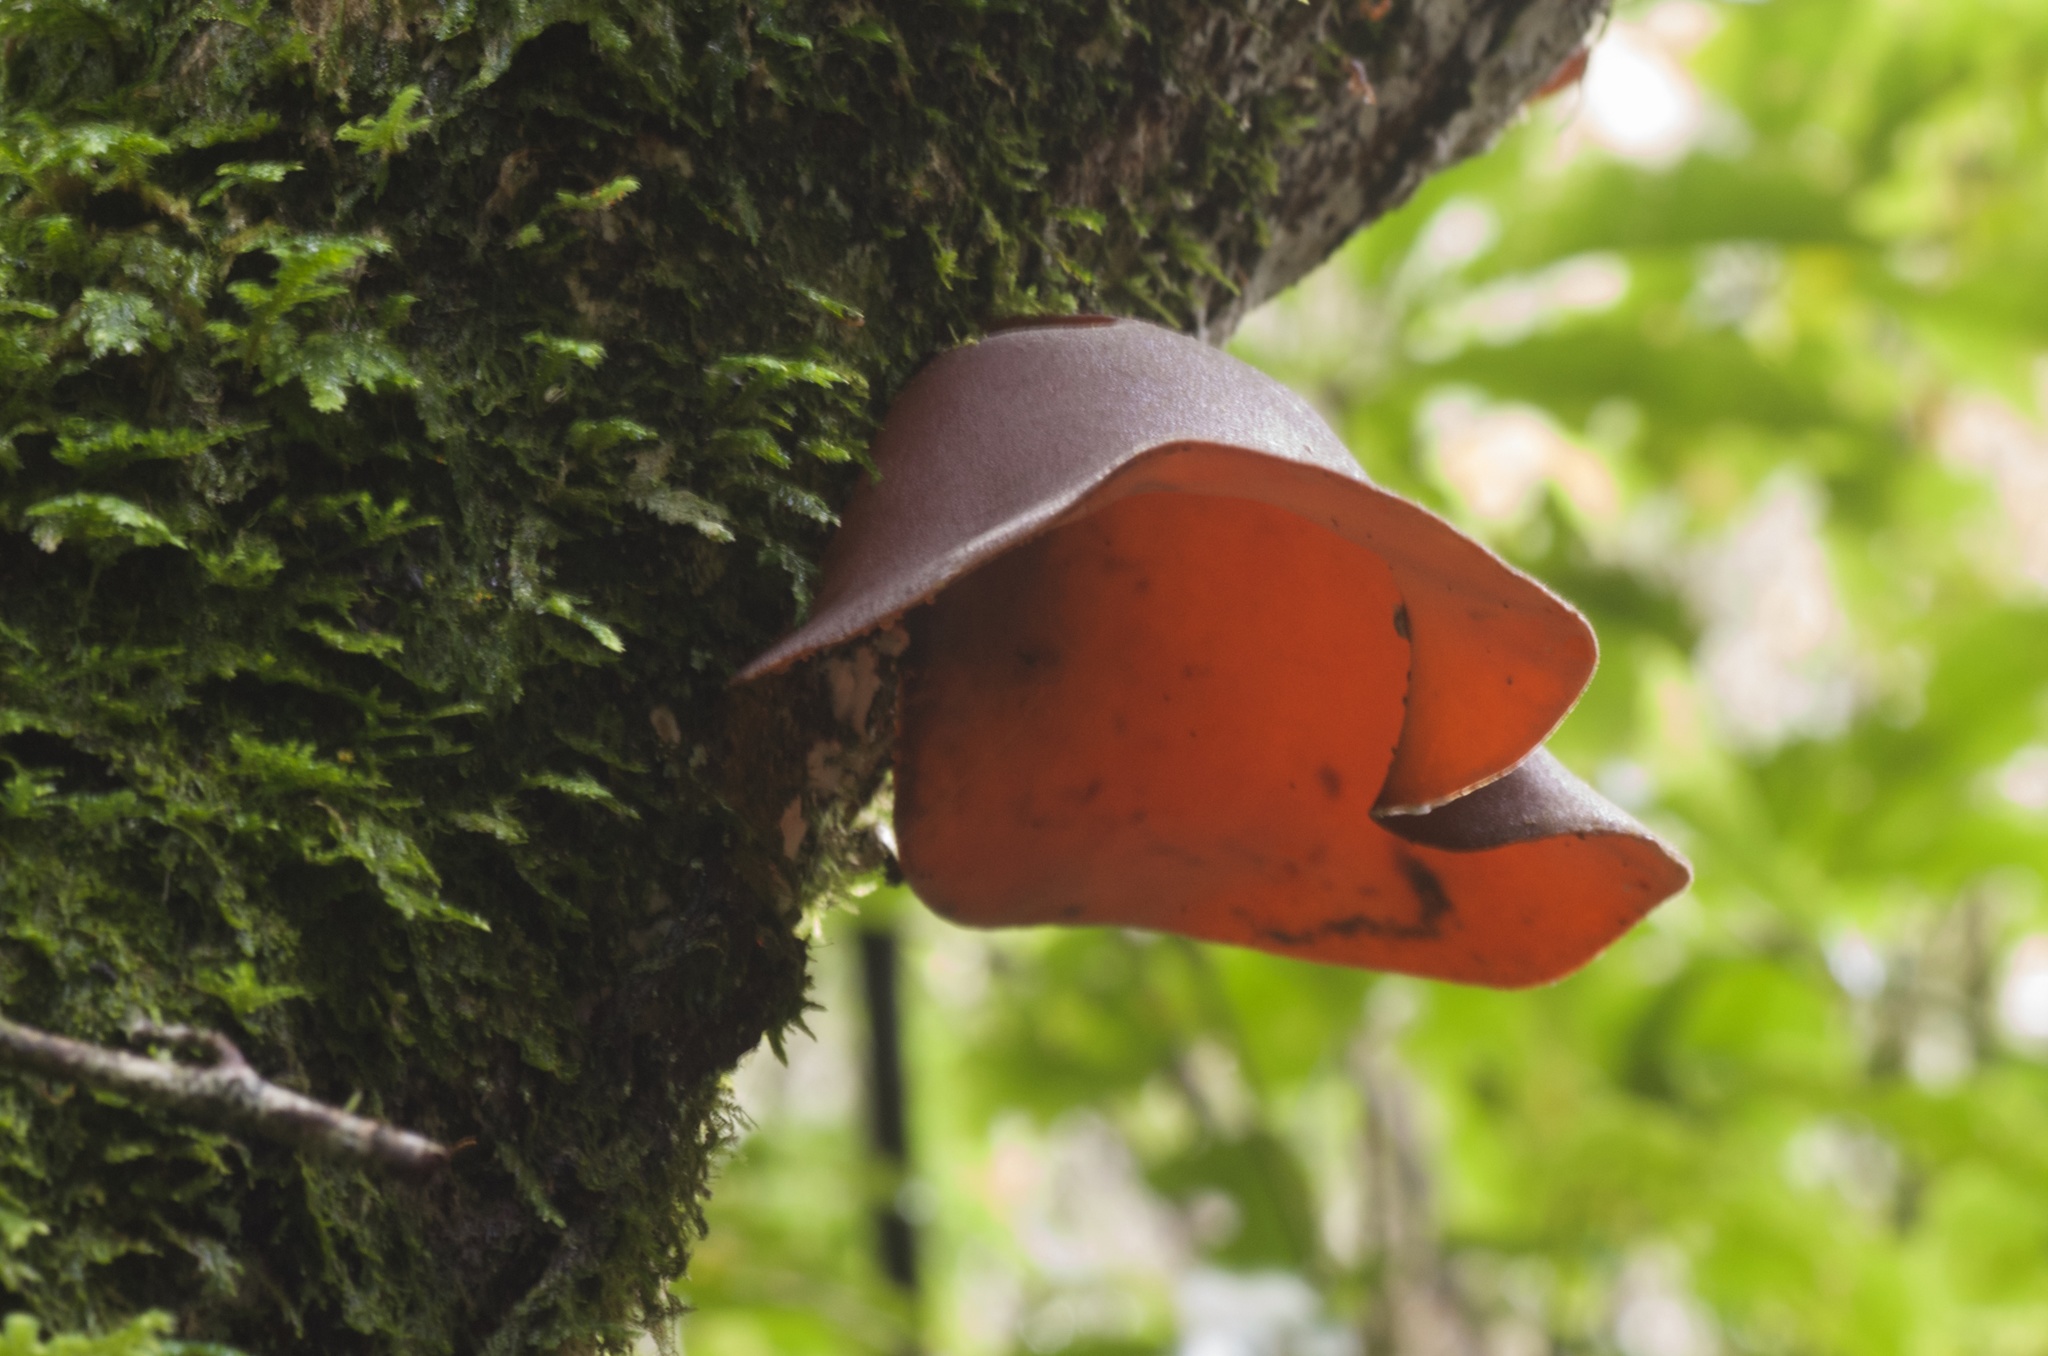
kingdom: Fungi
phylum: Basidiomycota
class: Agaricomycetes
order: Auriculariales
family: Auriculariaceae
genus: Auricularia
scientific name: Auricularia cornea
